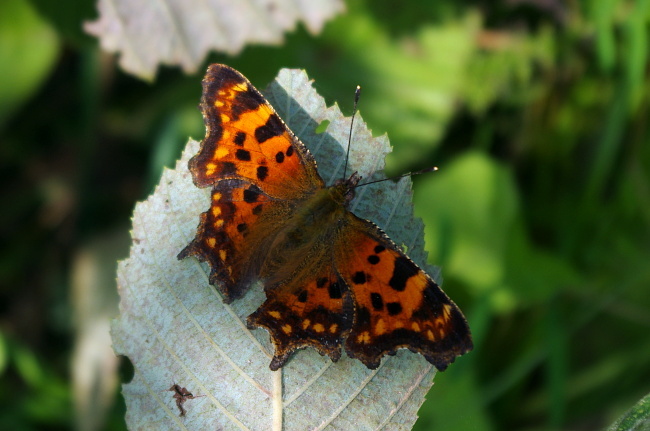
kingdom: Animalia
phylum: Arthropoda
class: Insecta
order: Lepidoptera
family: Nymphalidae
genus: Polygonia
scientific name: Polygonia c-album
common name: Comma
